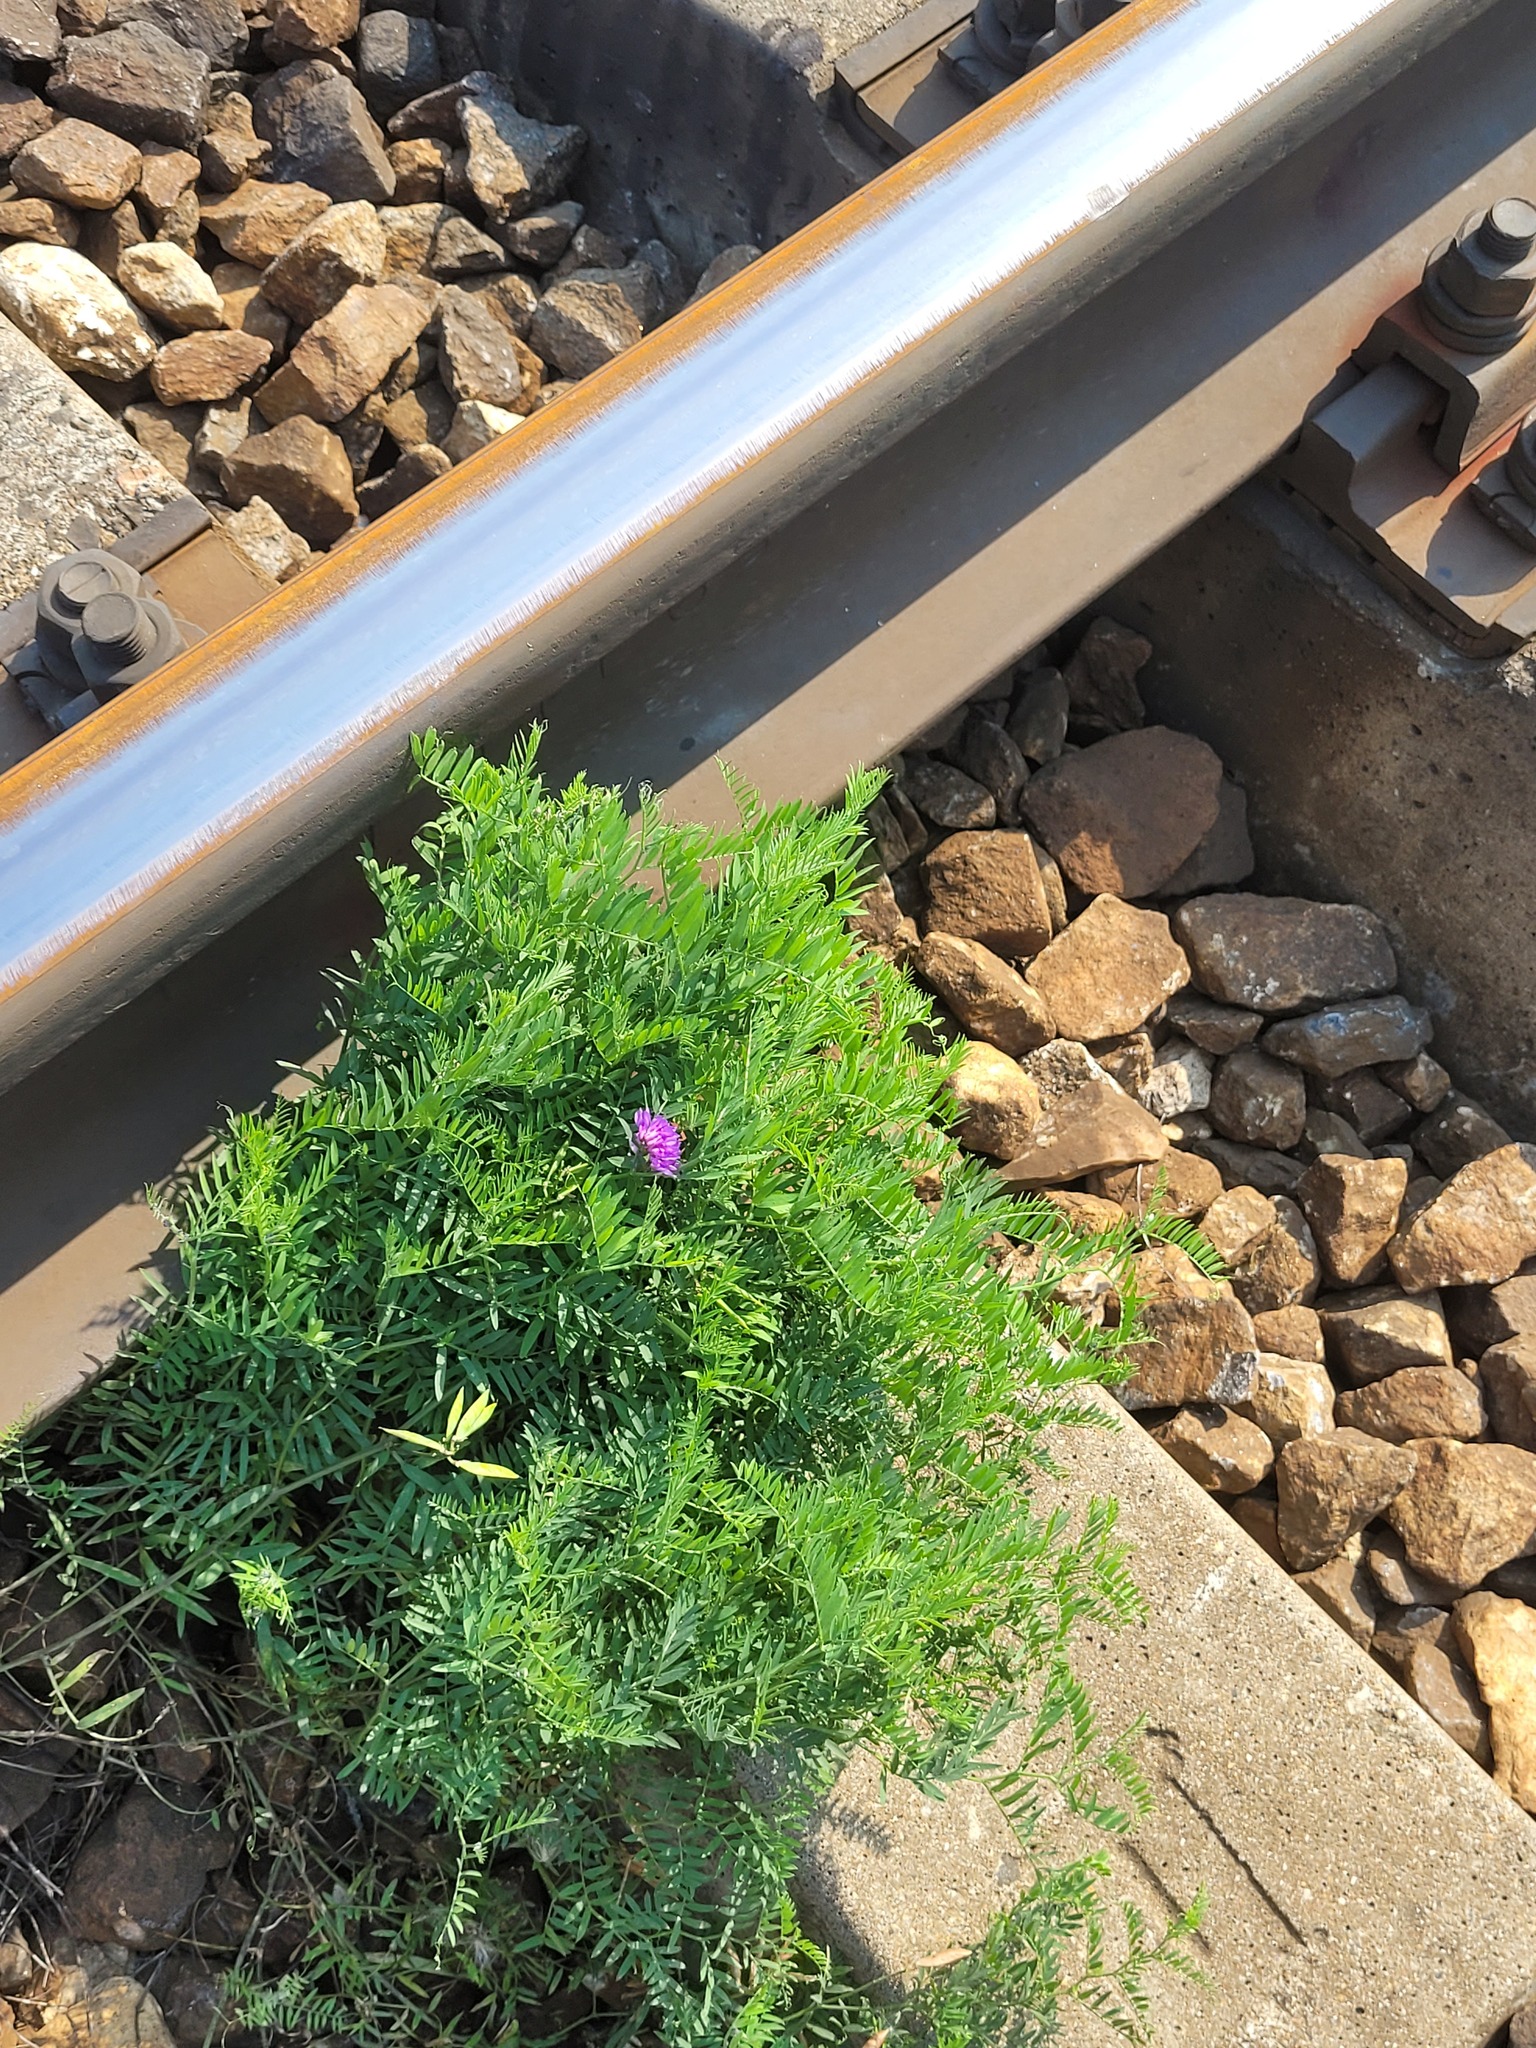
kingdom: Plantae
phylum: Tracheophyta
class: Magnoliopsida
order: Fabales
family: Fabaceae
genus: Vicia
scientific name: Vicia cracca
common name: Bird vetch
